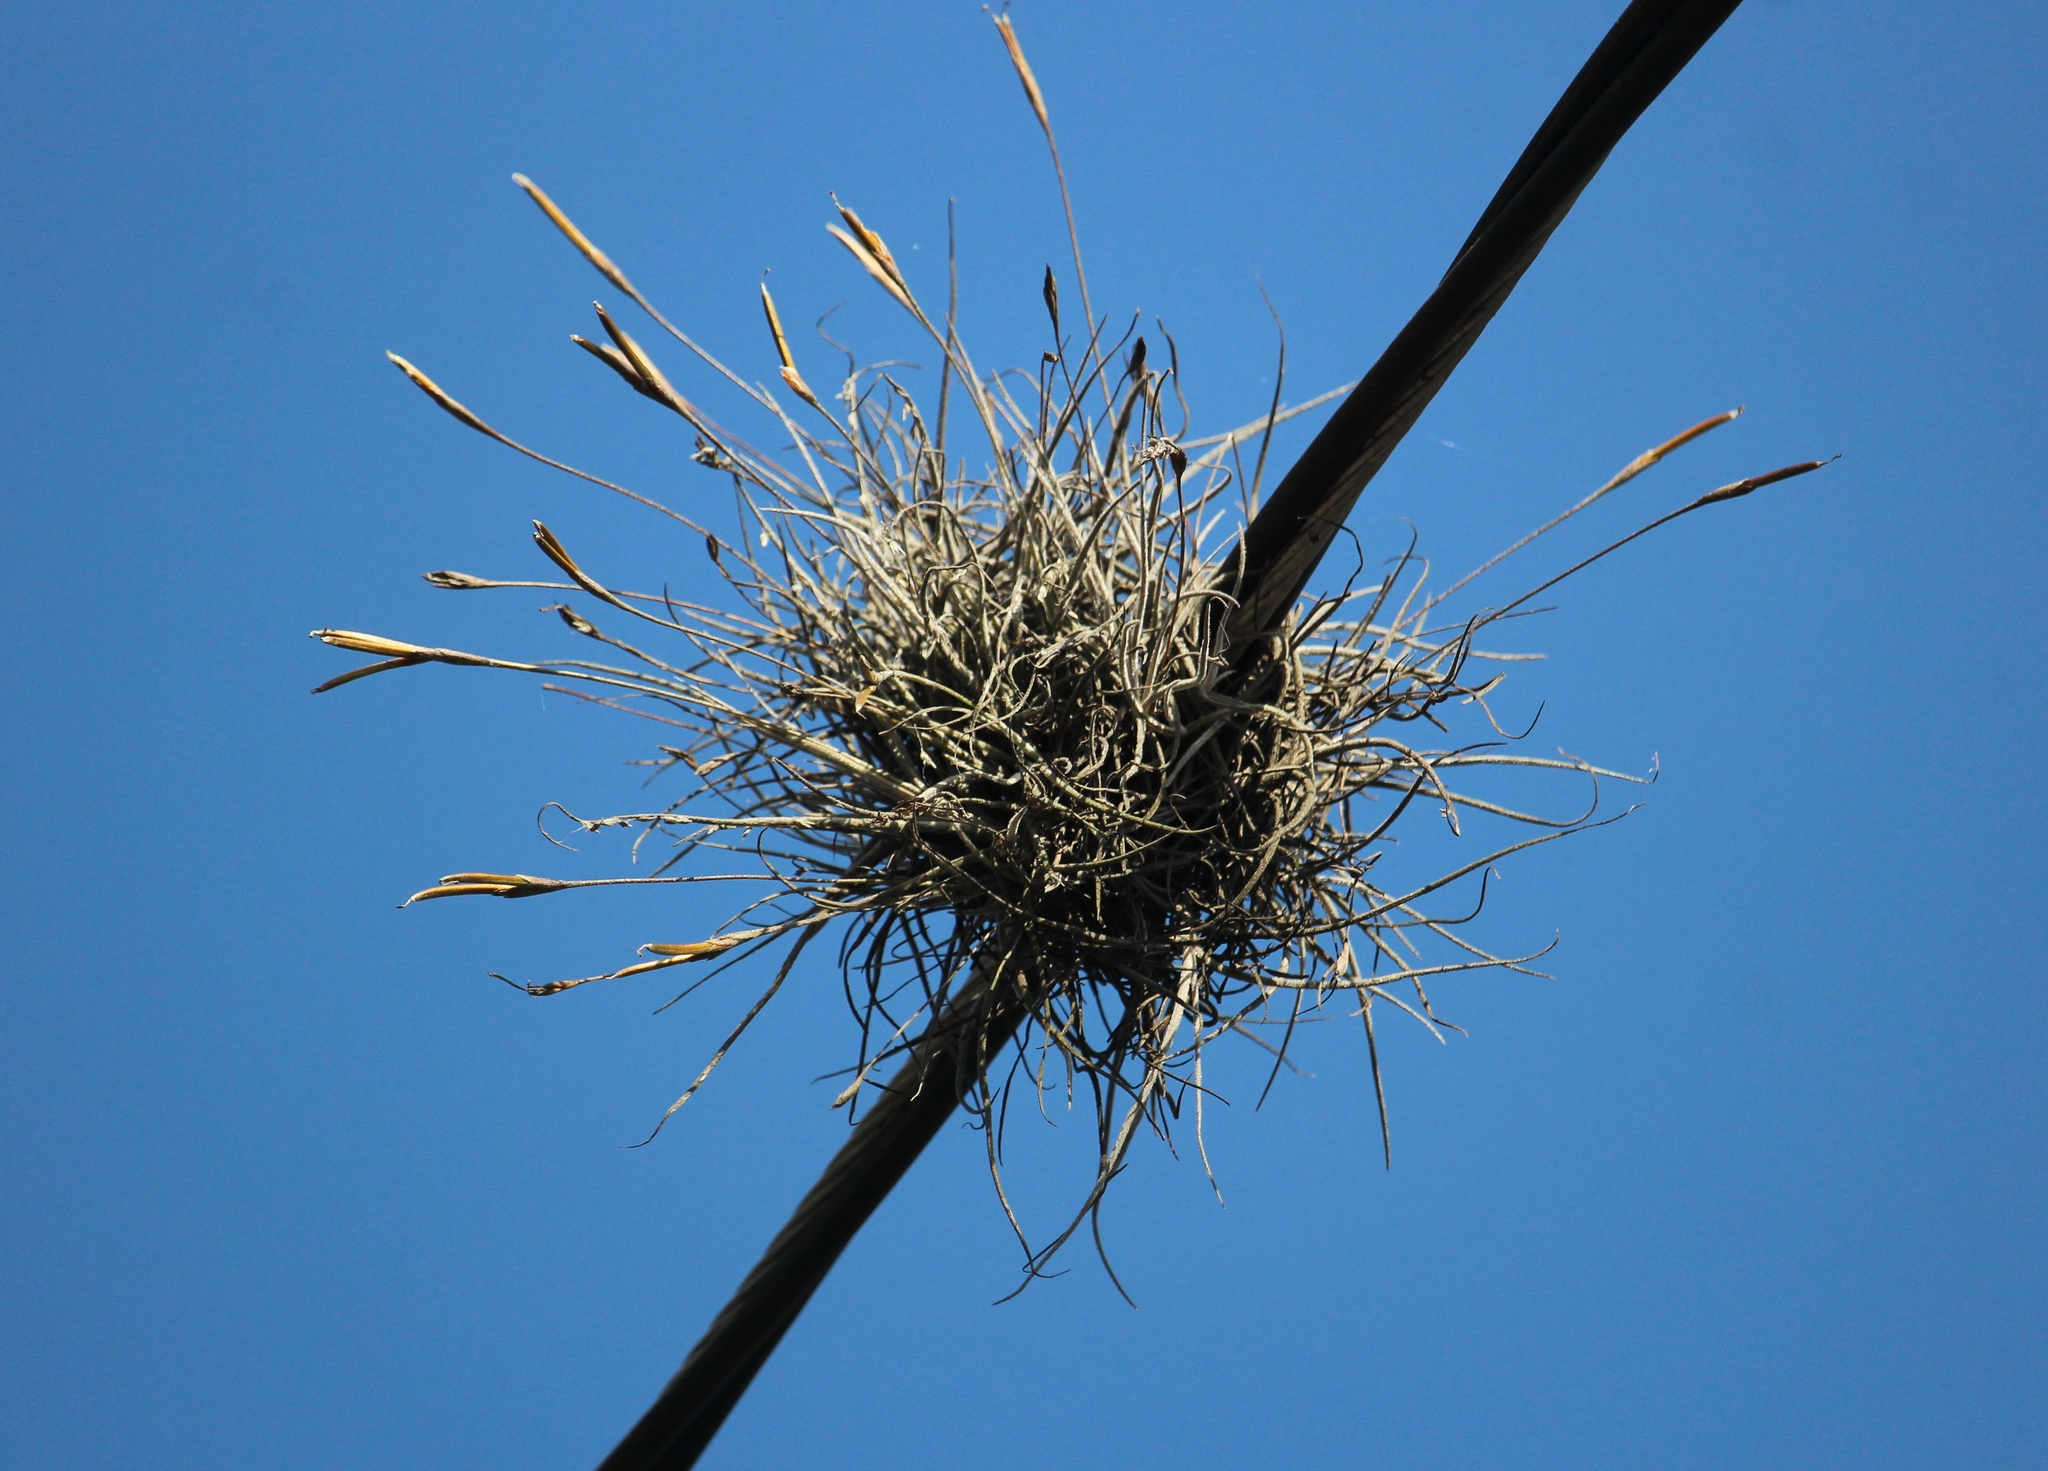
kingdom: Plantae
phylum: Tracheophyta
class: Liliopsida
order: Poales
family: Bromeliaceae
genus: Tillandsia
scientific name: Tillandsia recurvata
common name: Small ballmoss
